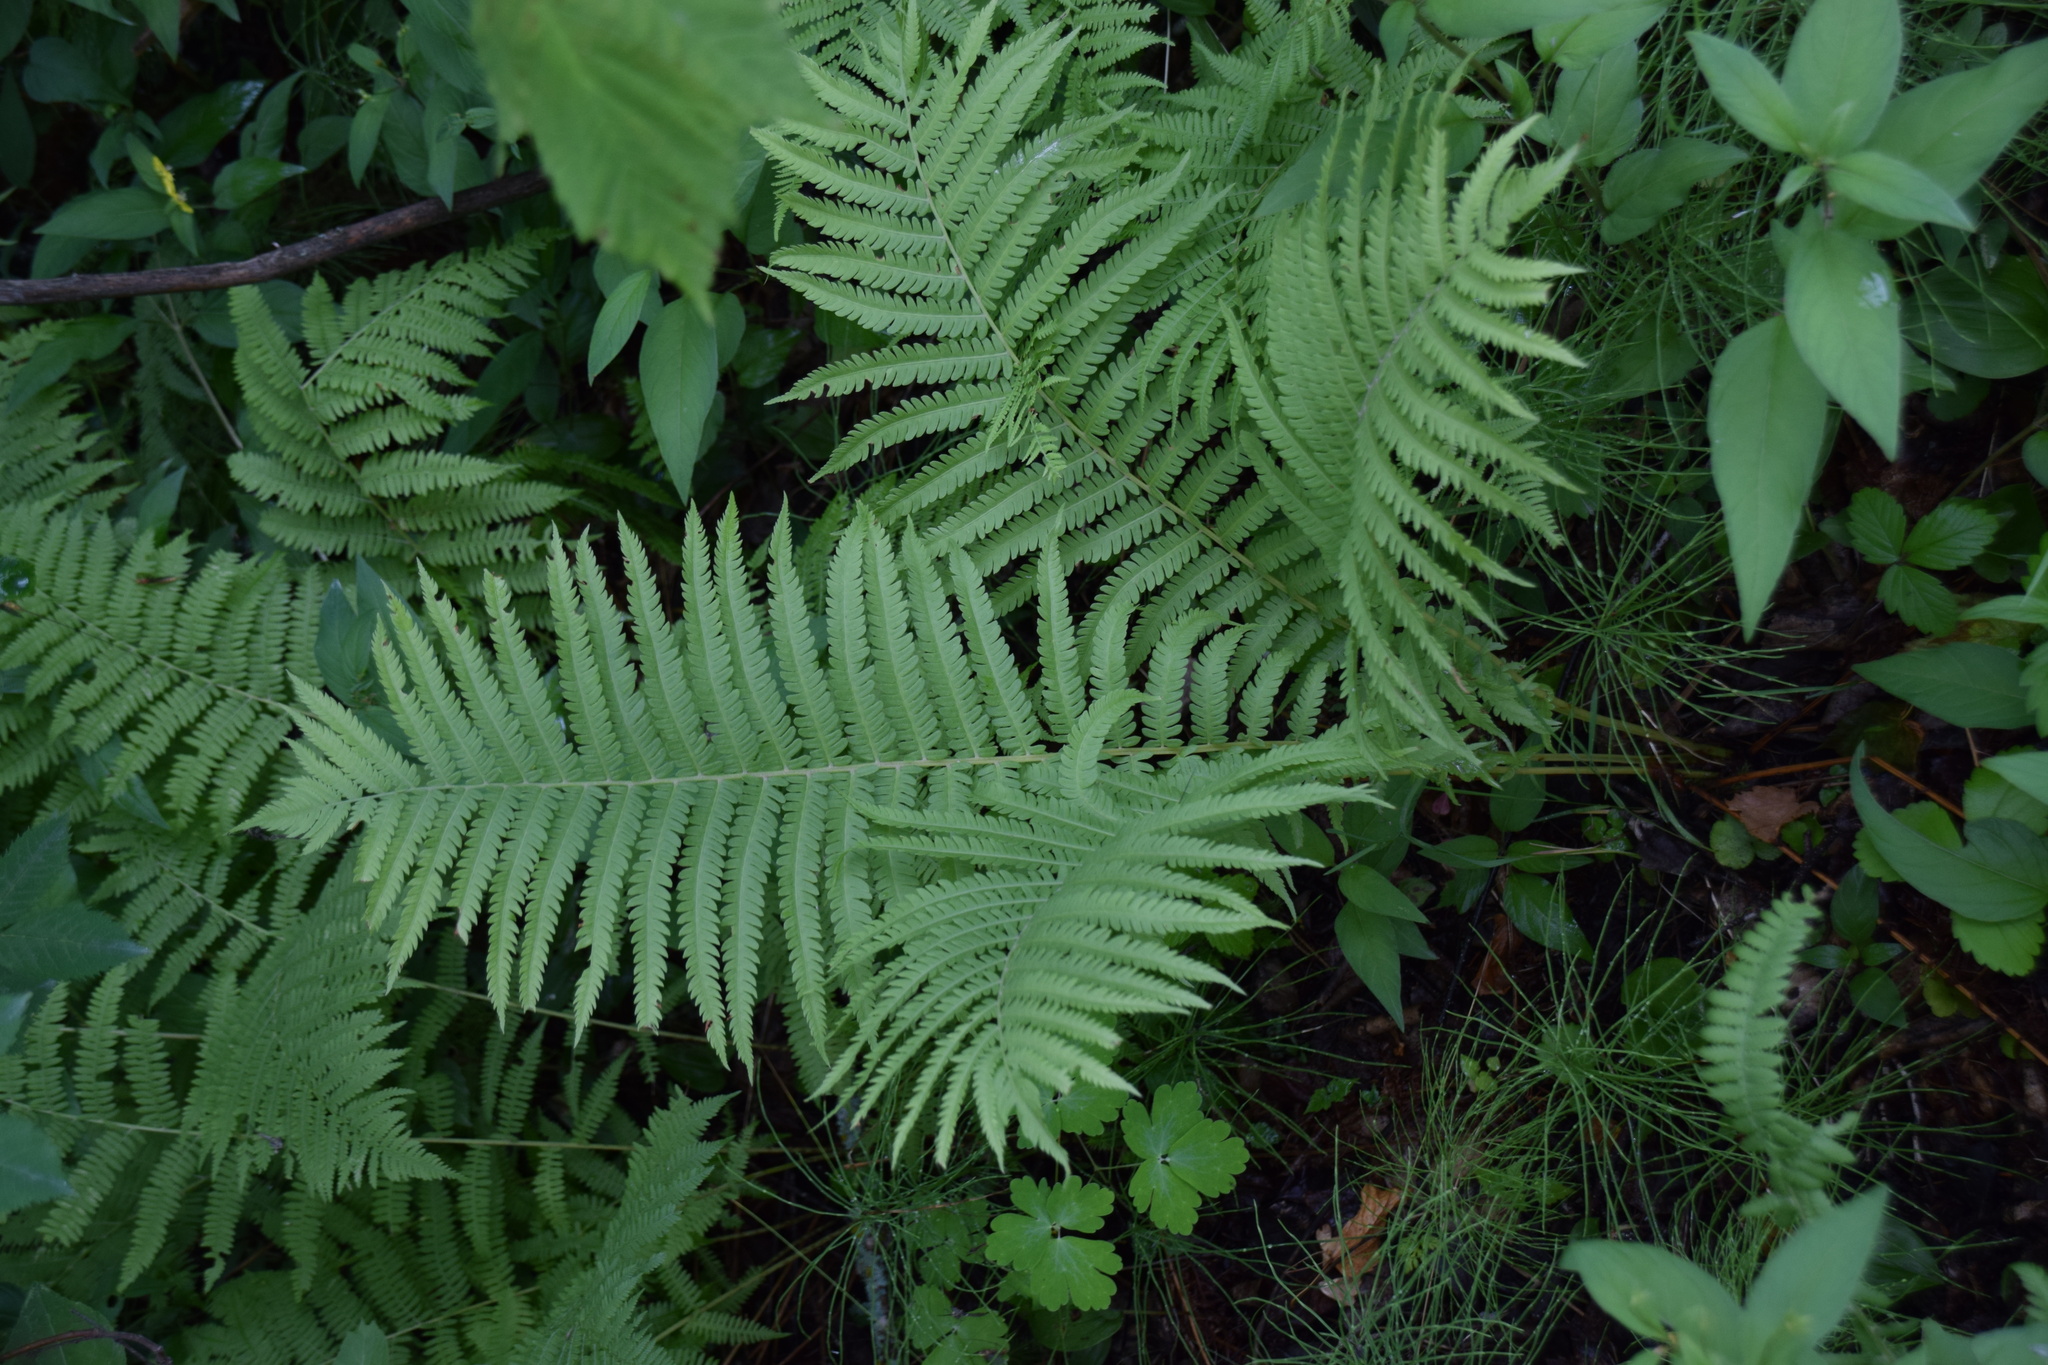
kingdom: Plantae
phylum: Tracheophyta
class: Polypodiopsida
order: Polypodiales
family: Onocleaceae
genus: Matteuccia
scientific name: Matteuccia struthiopteris
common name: Ostrich fern
